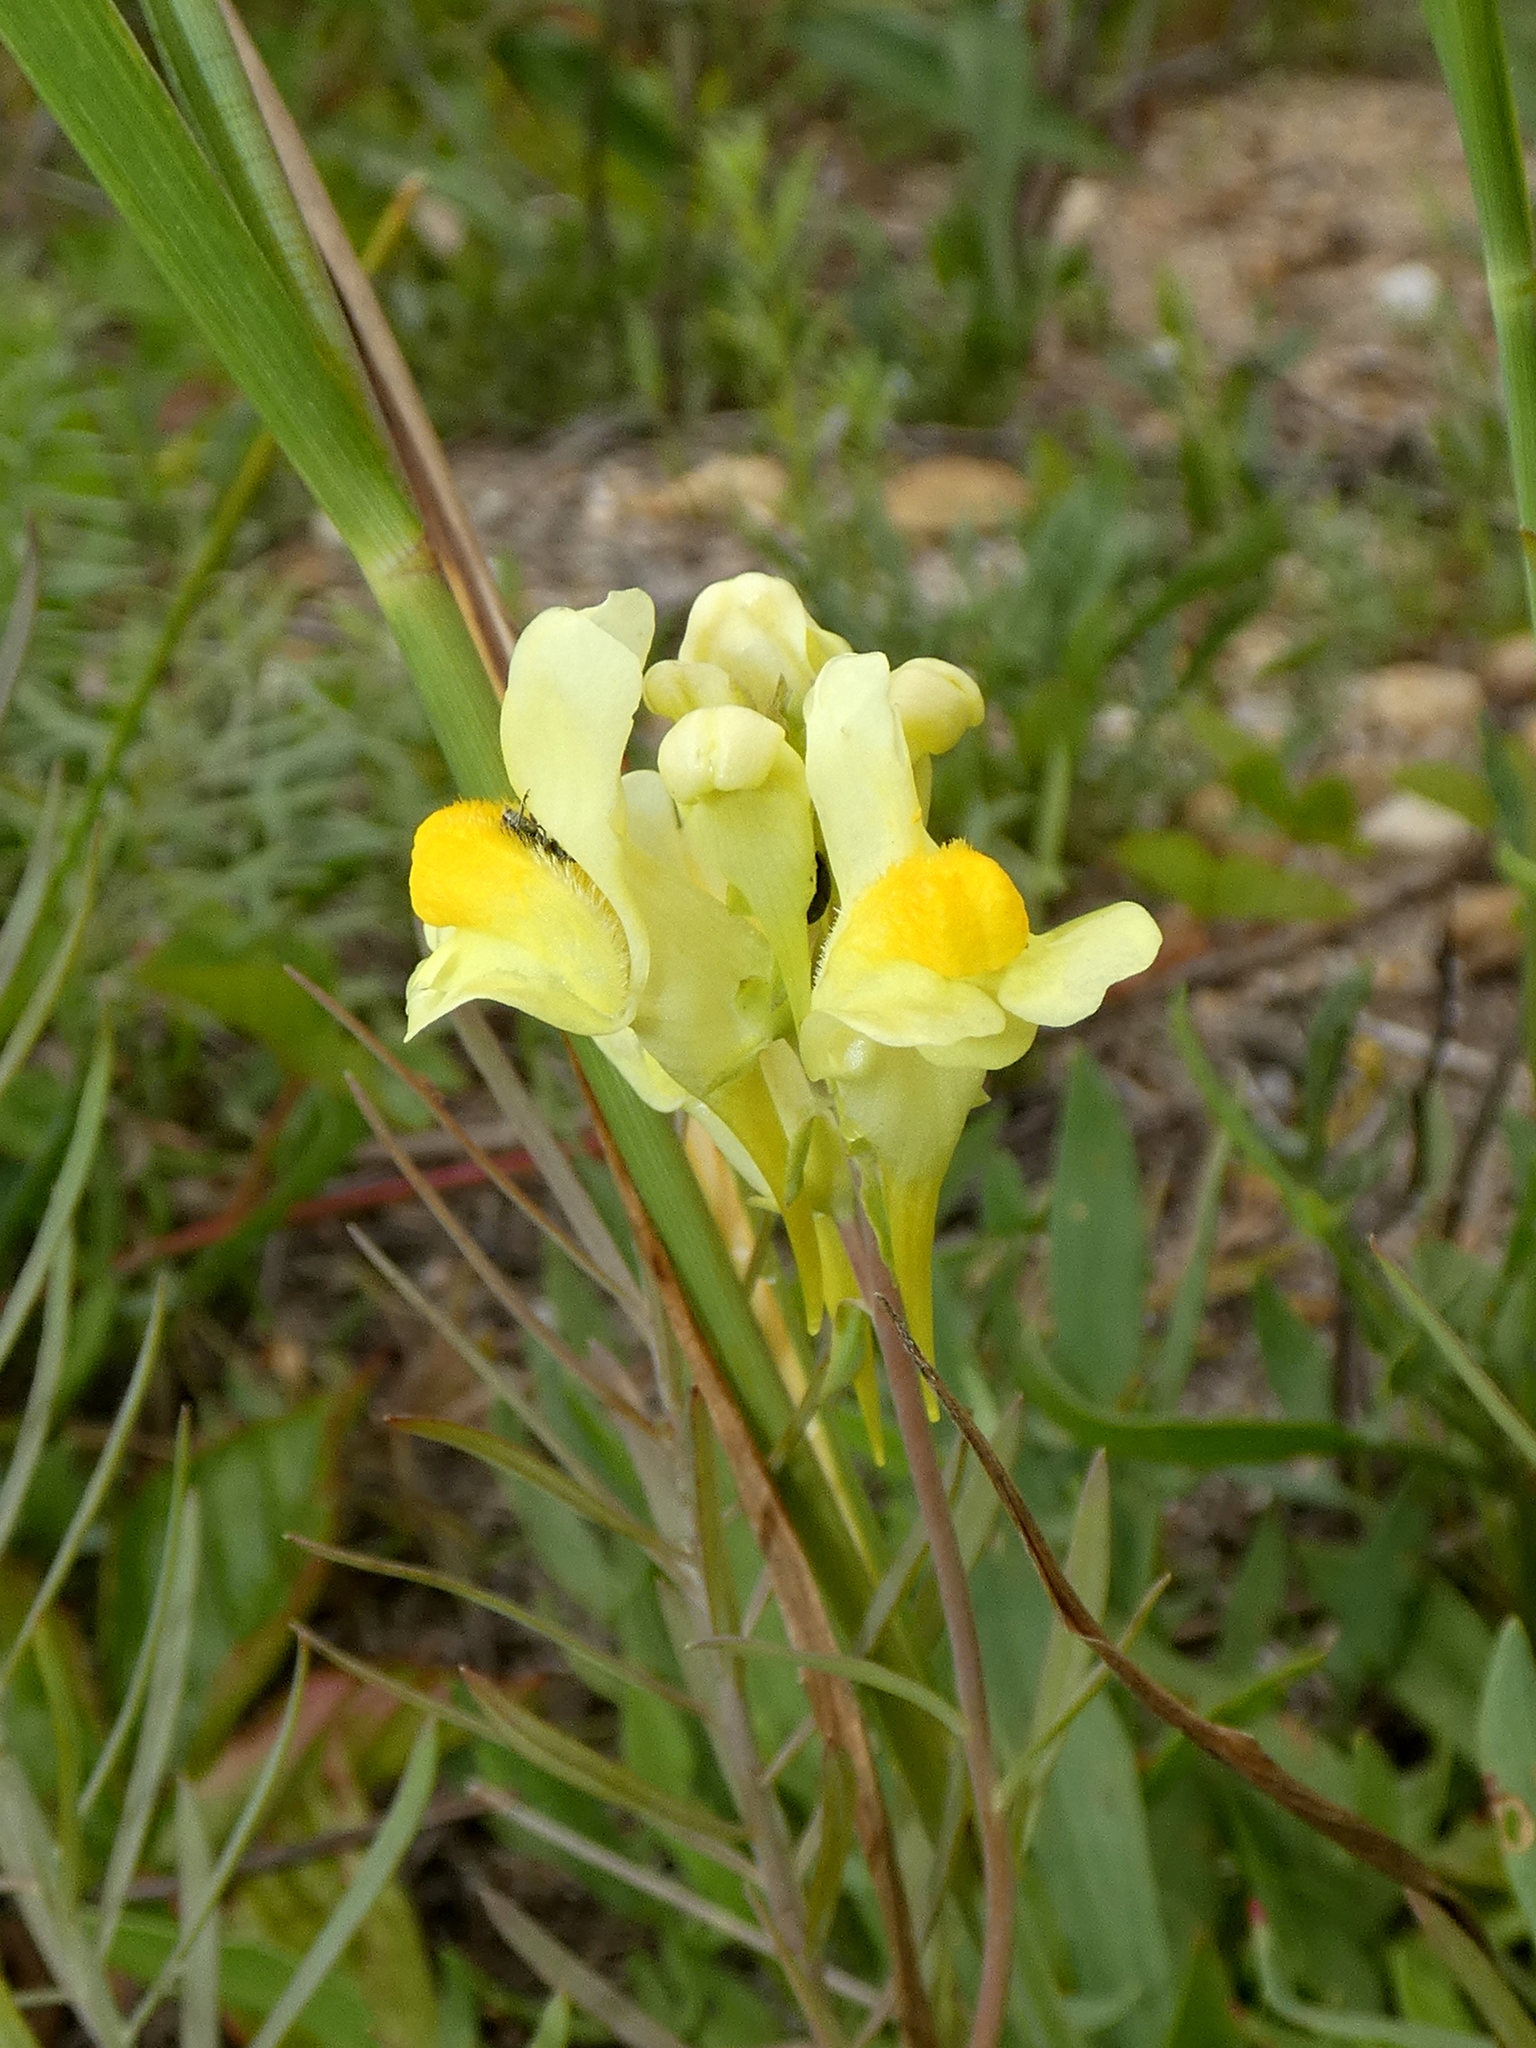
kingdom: Plantae
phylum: Tracheophyta
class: Magnoliopsida
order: Lamiales
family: Plantaginaceae
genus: Linaria
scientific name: Linaria vulgaris
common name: Butter and eggs
